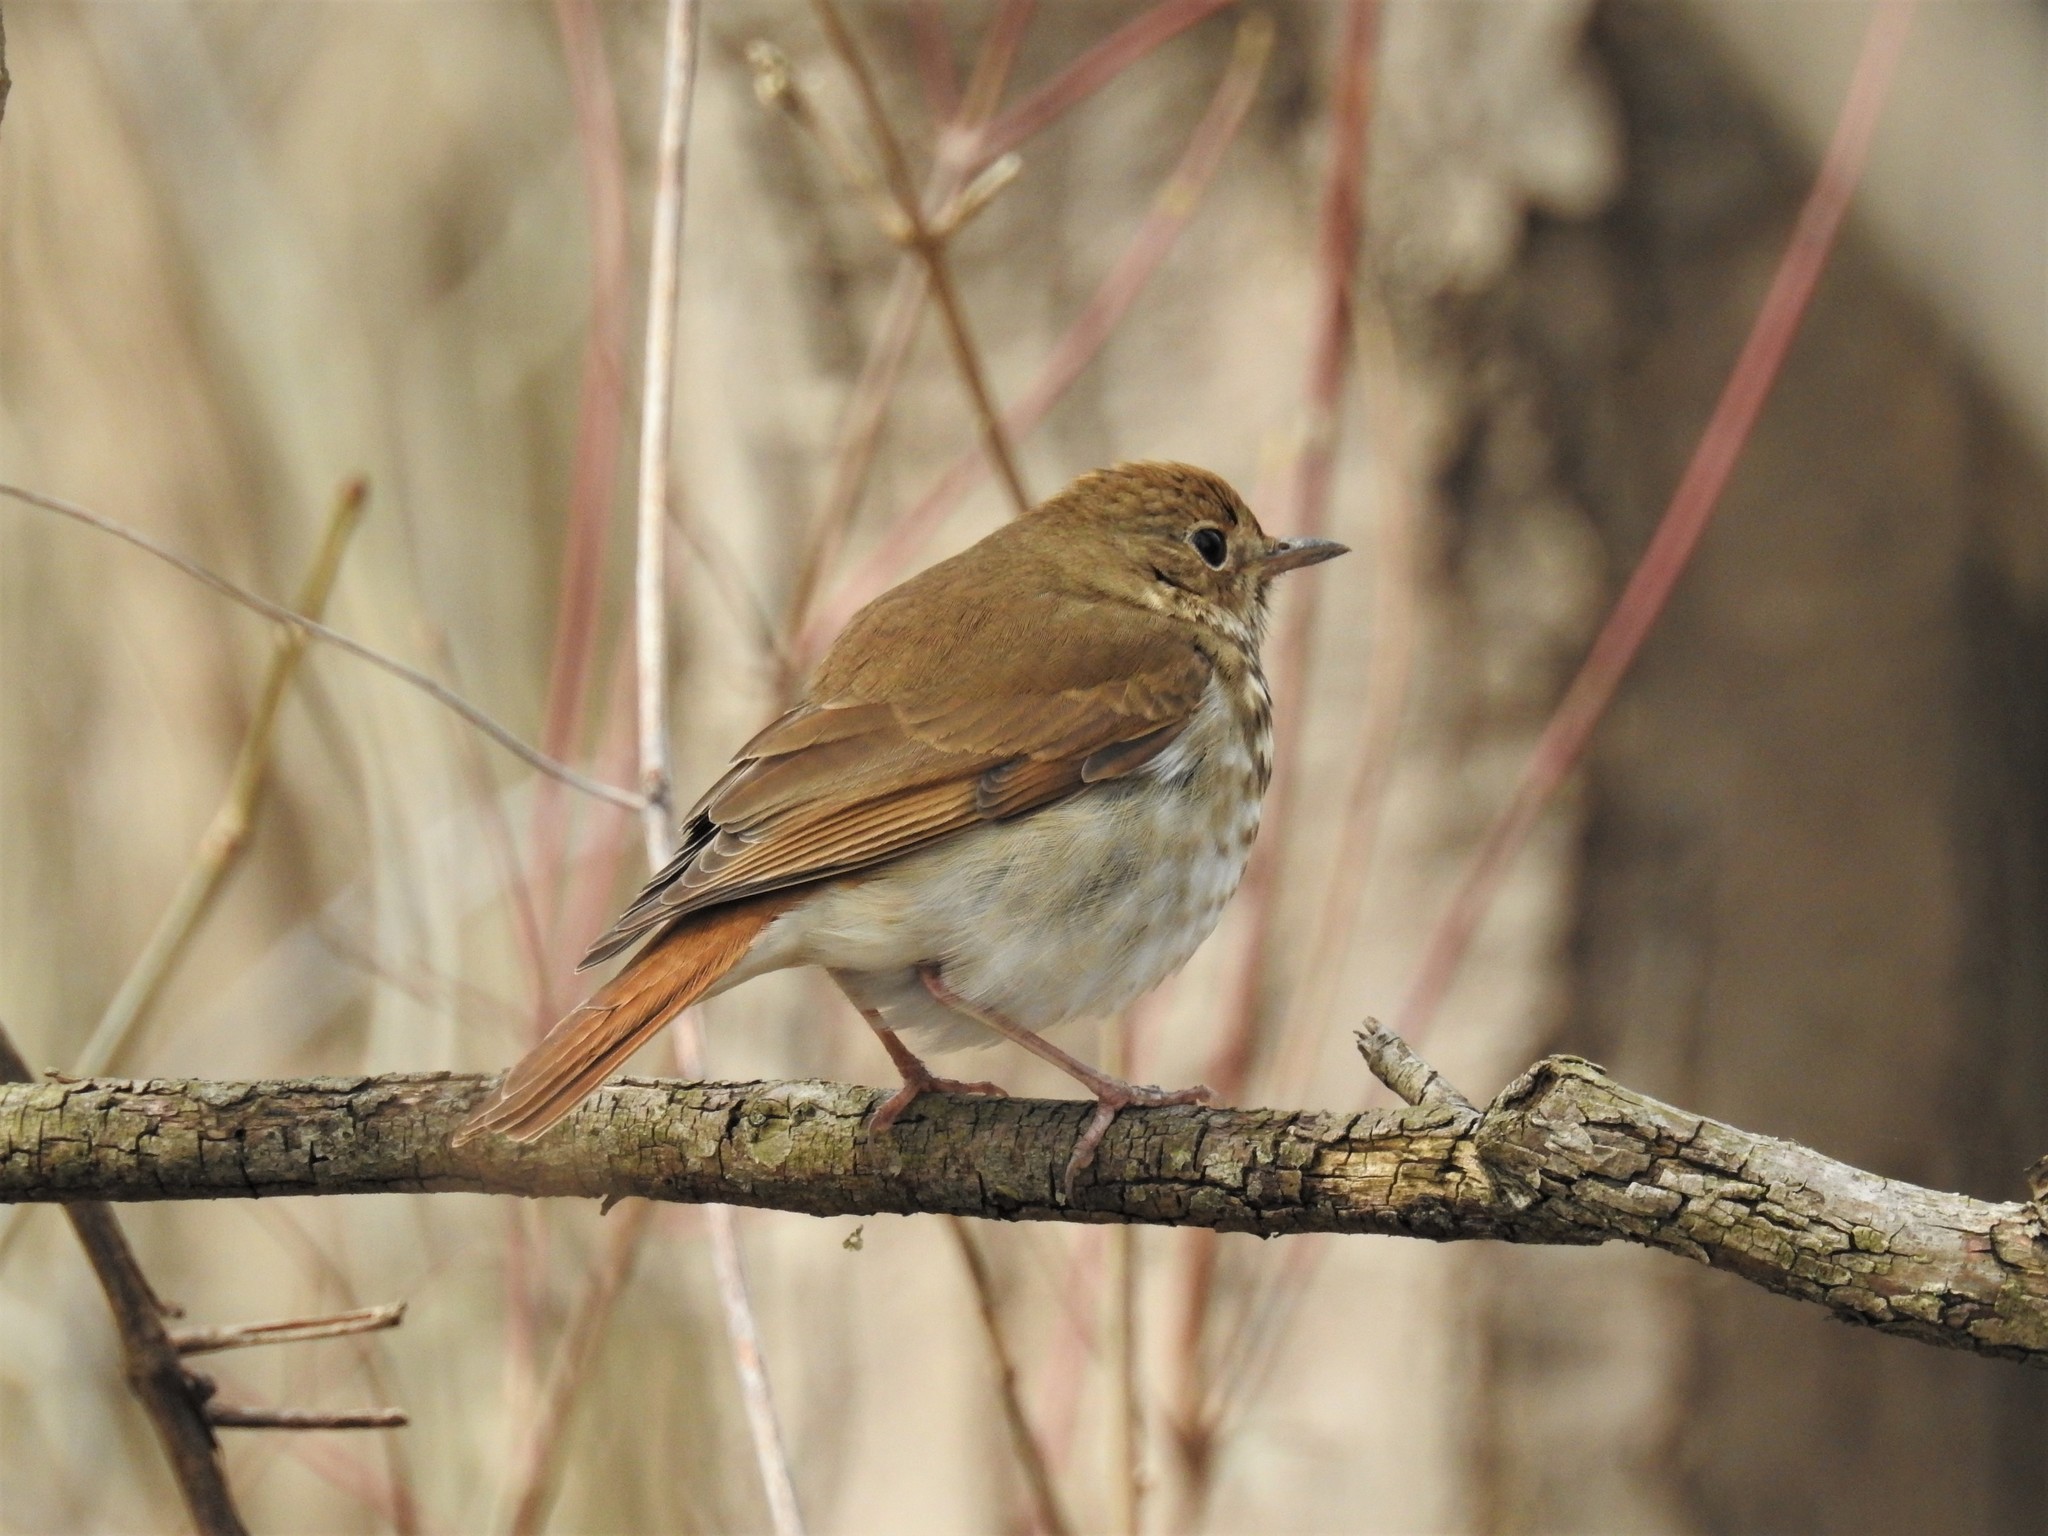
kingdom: Animalia
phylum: Chordata
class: Aves
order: Passeriformes
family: Turdidae
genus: Catharus
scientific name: Catharus guttatus
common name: Hermit thrush
